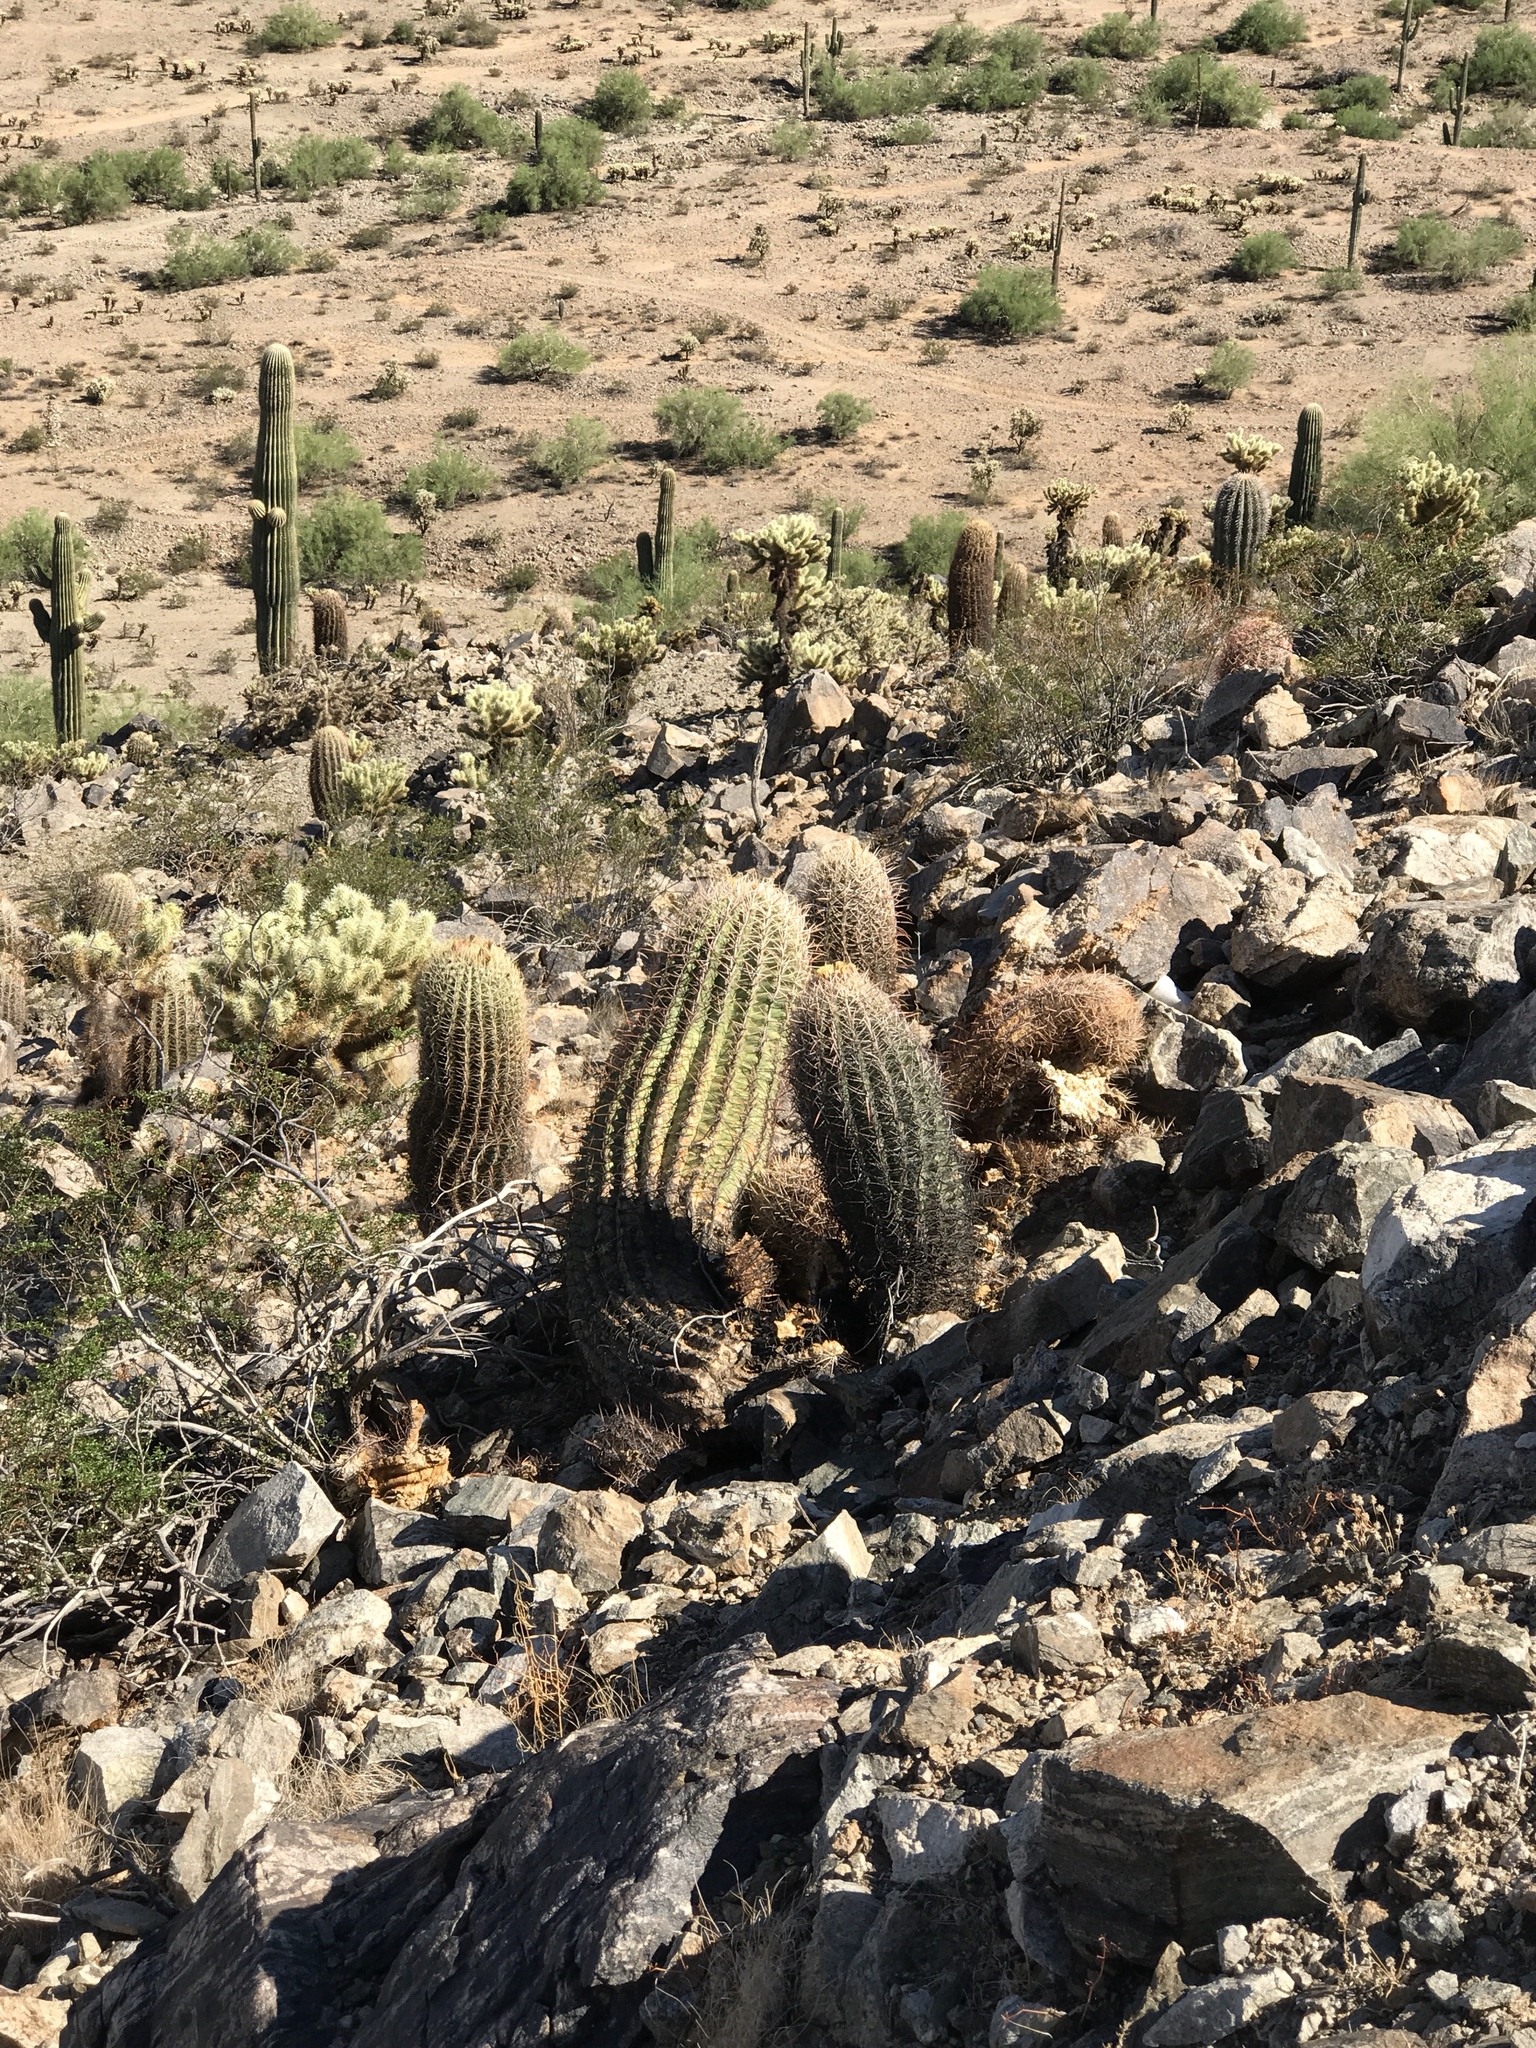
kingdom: Plantae
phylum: Tracheophyta
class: Magnoliopsida
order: Caryophyllales
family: Cactaceae
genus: Ferocactus
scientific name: Ferocactus cylindraceus
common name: California barrel cactus
